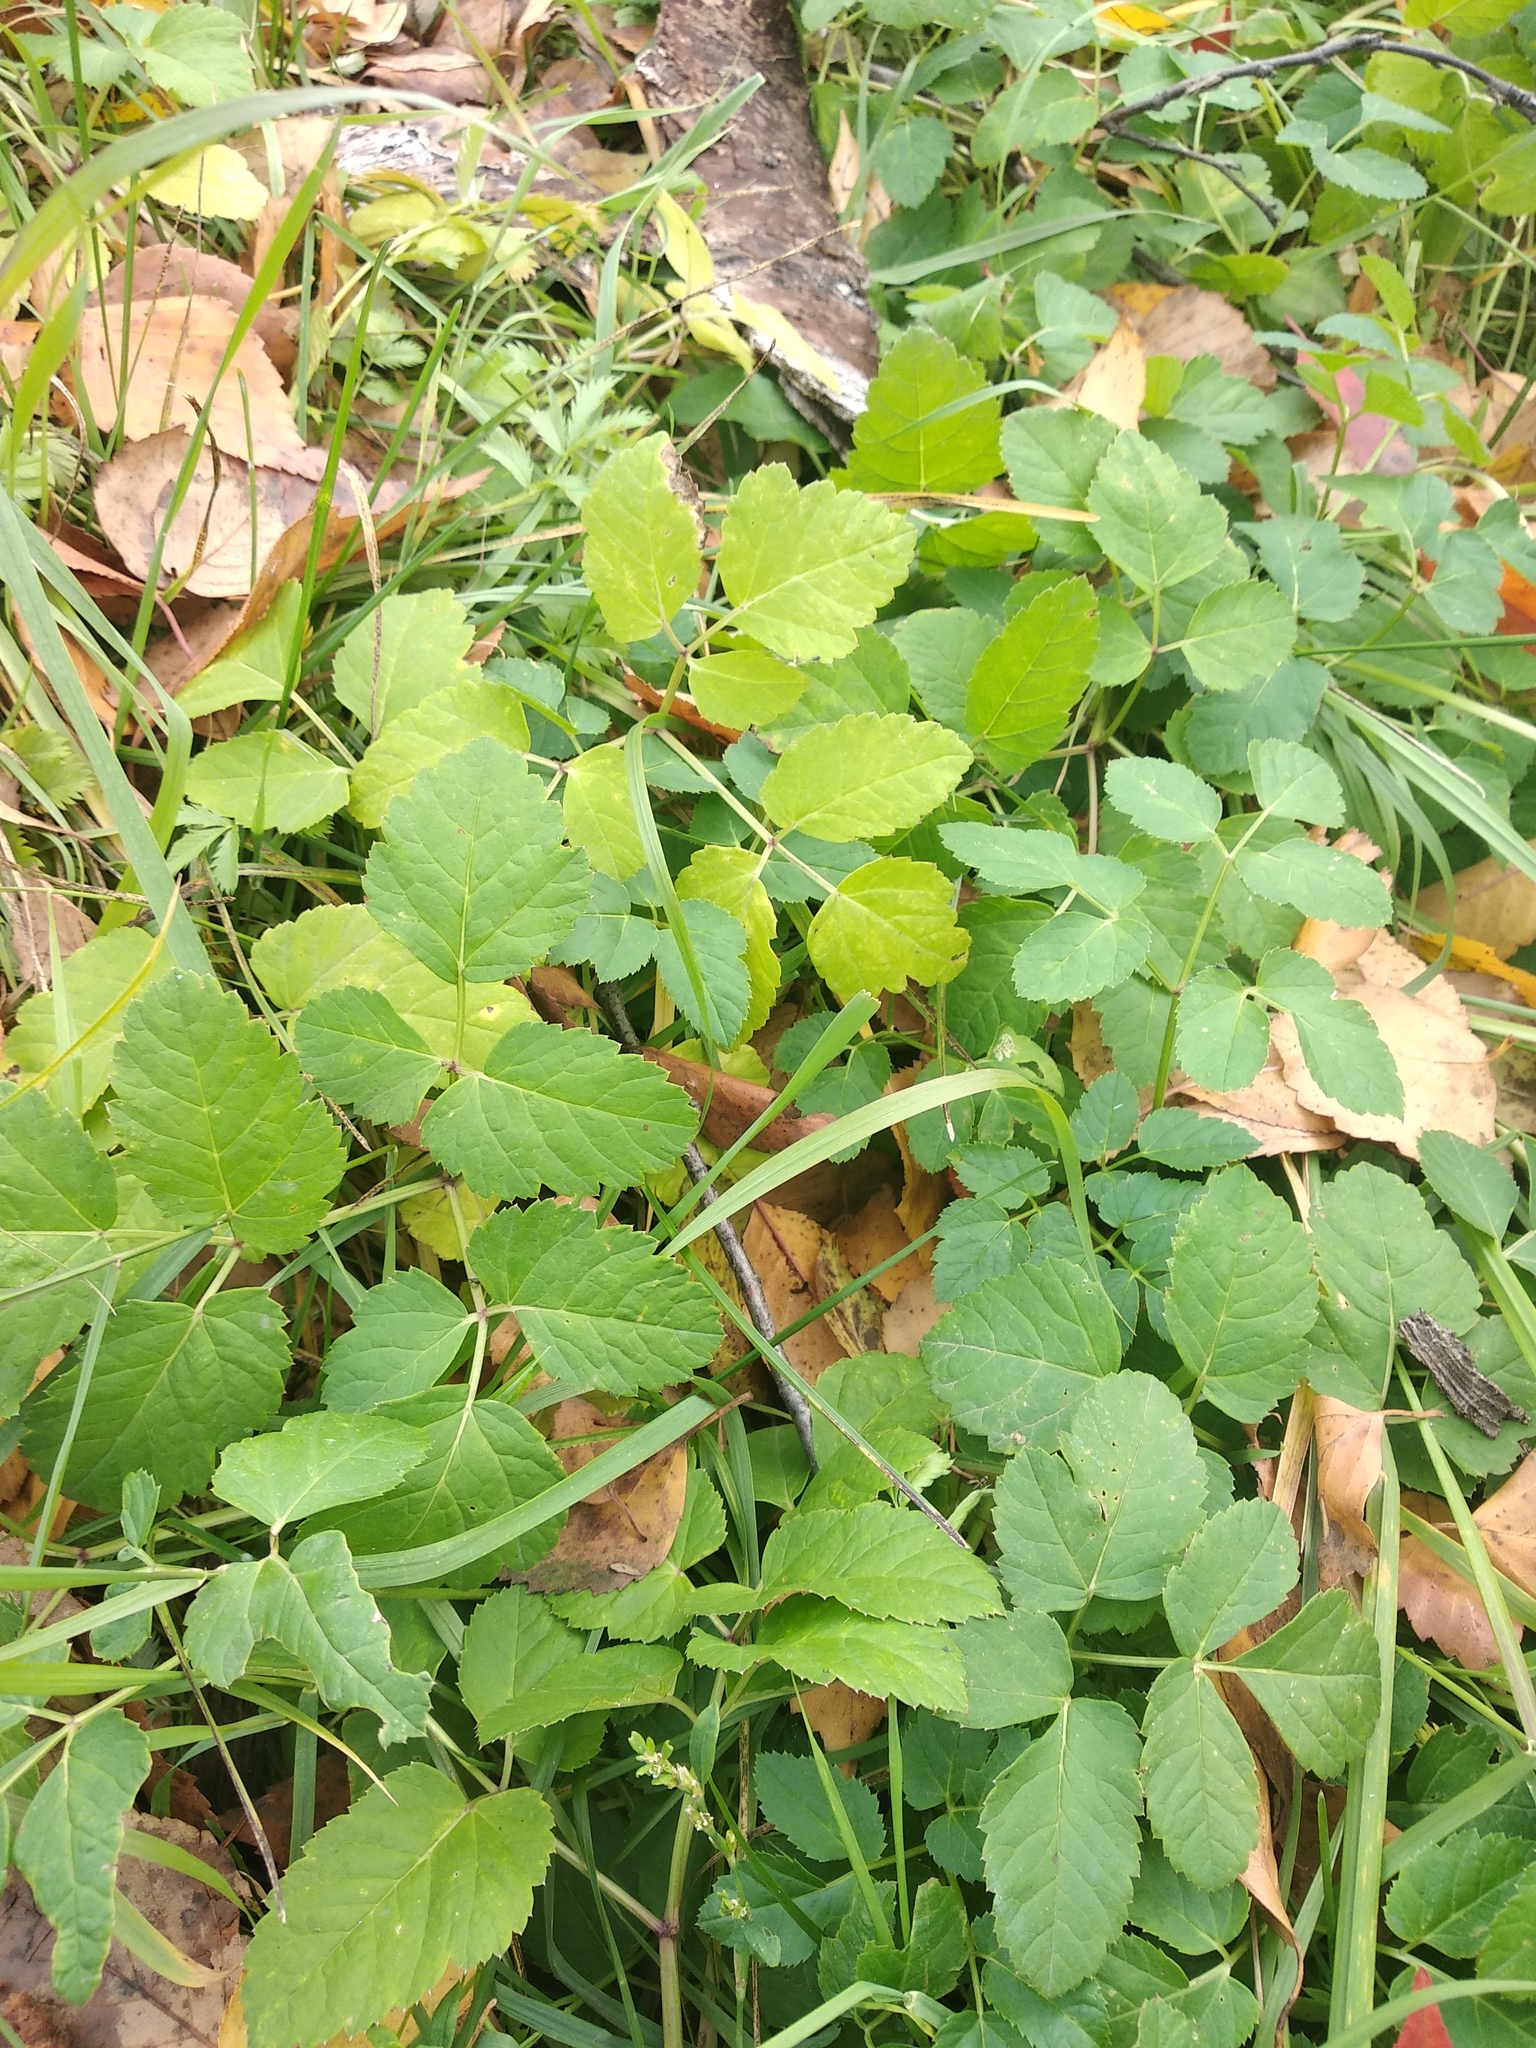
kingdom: Plantae
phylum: Tracheophyta
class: Magnoliopsida
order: Apiales
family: Apiaceae
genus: Aegopodium
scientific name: Aegopodium podagraria
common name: Ground-elder
